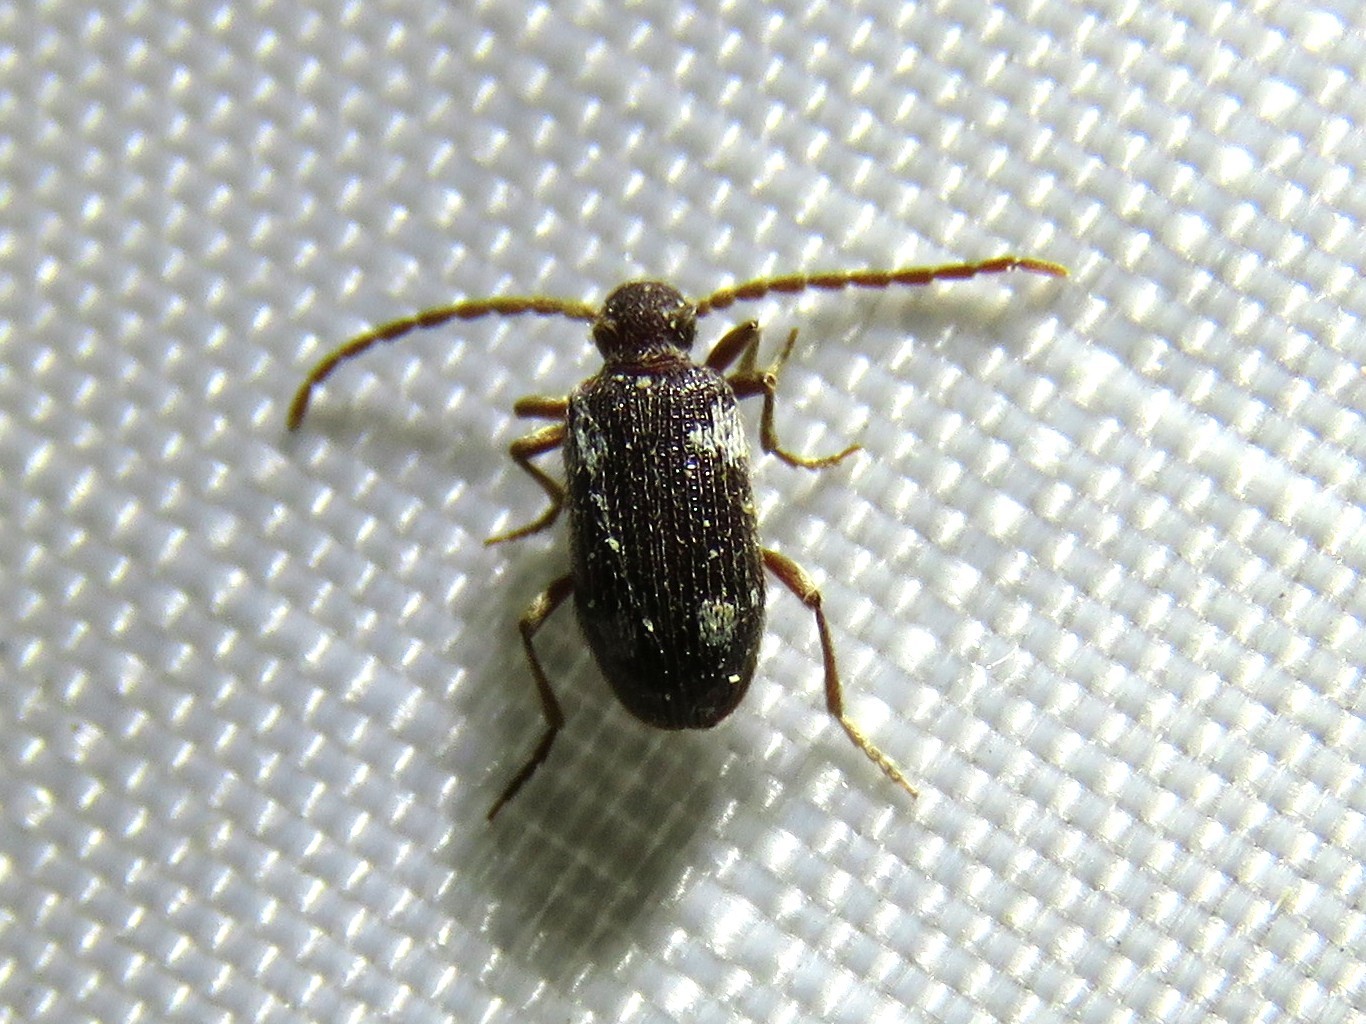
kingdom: Animalia
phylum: Arthropoda
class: Insecta
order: Coleoptera
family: Ptinidae
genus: Ptinus
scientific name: Ptinus sexpunctatus
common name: Six-spotted spider beetle
